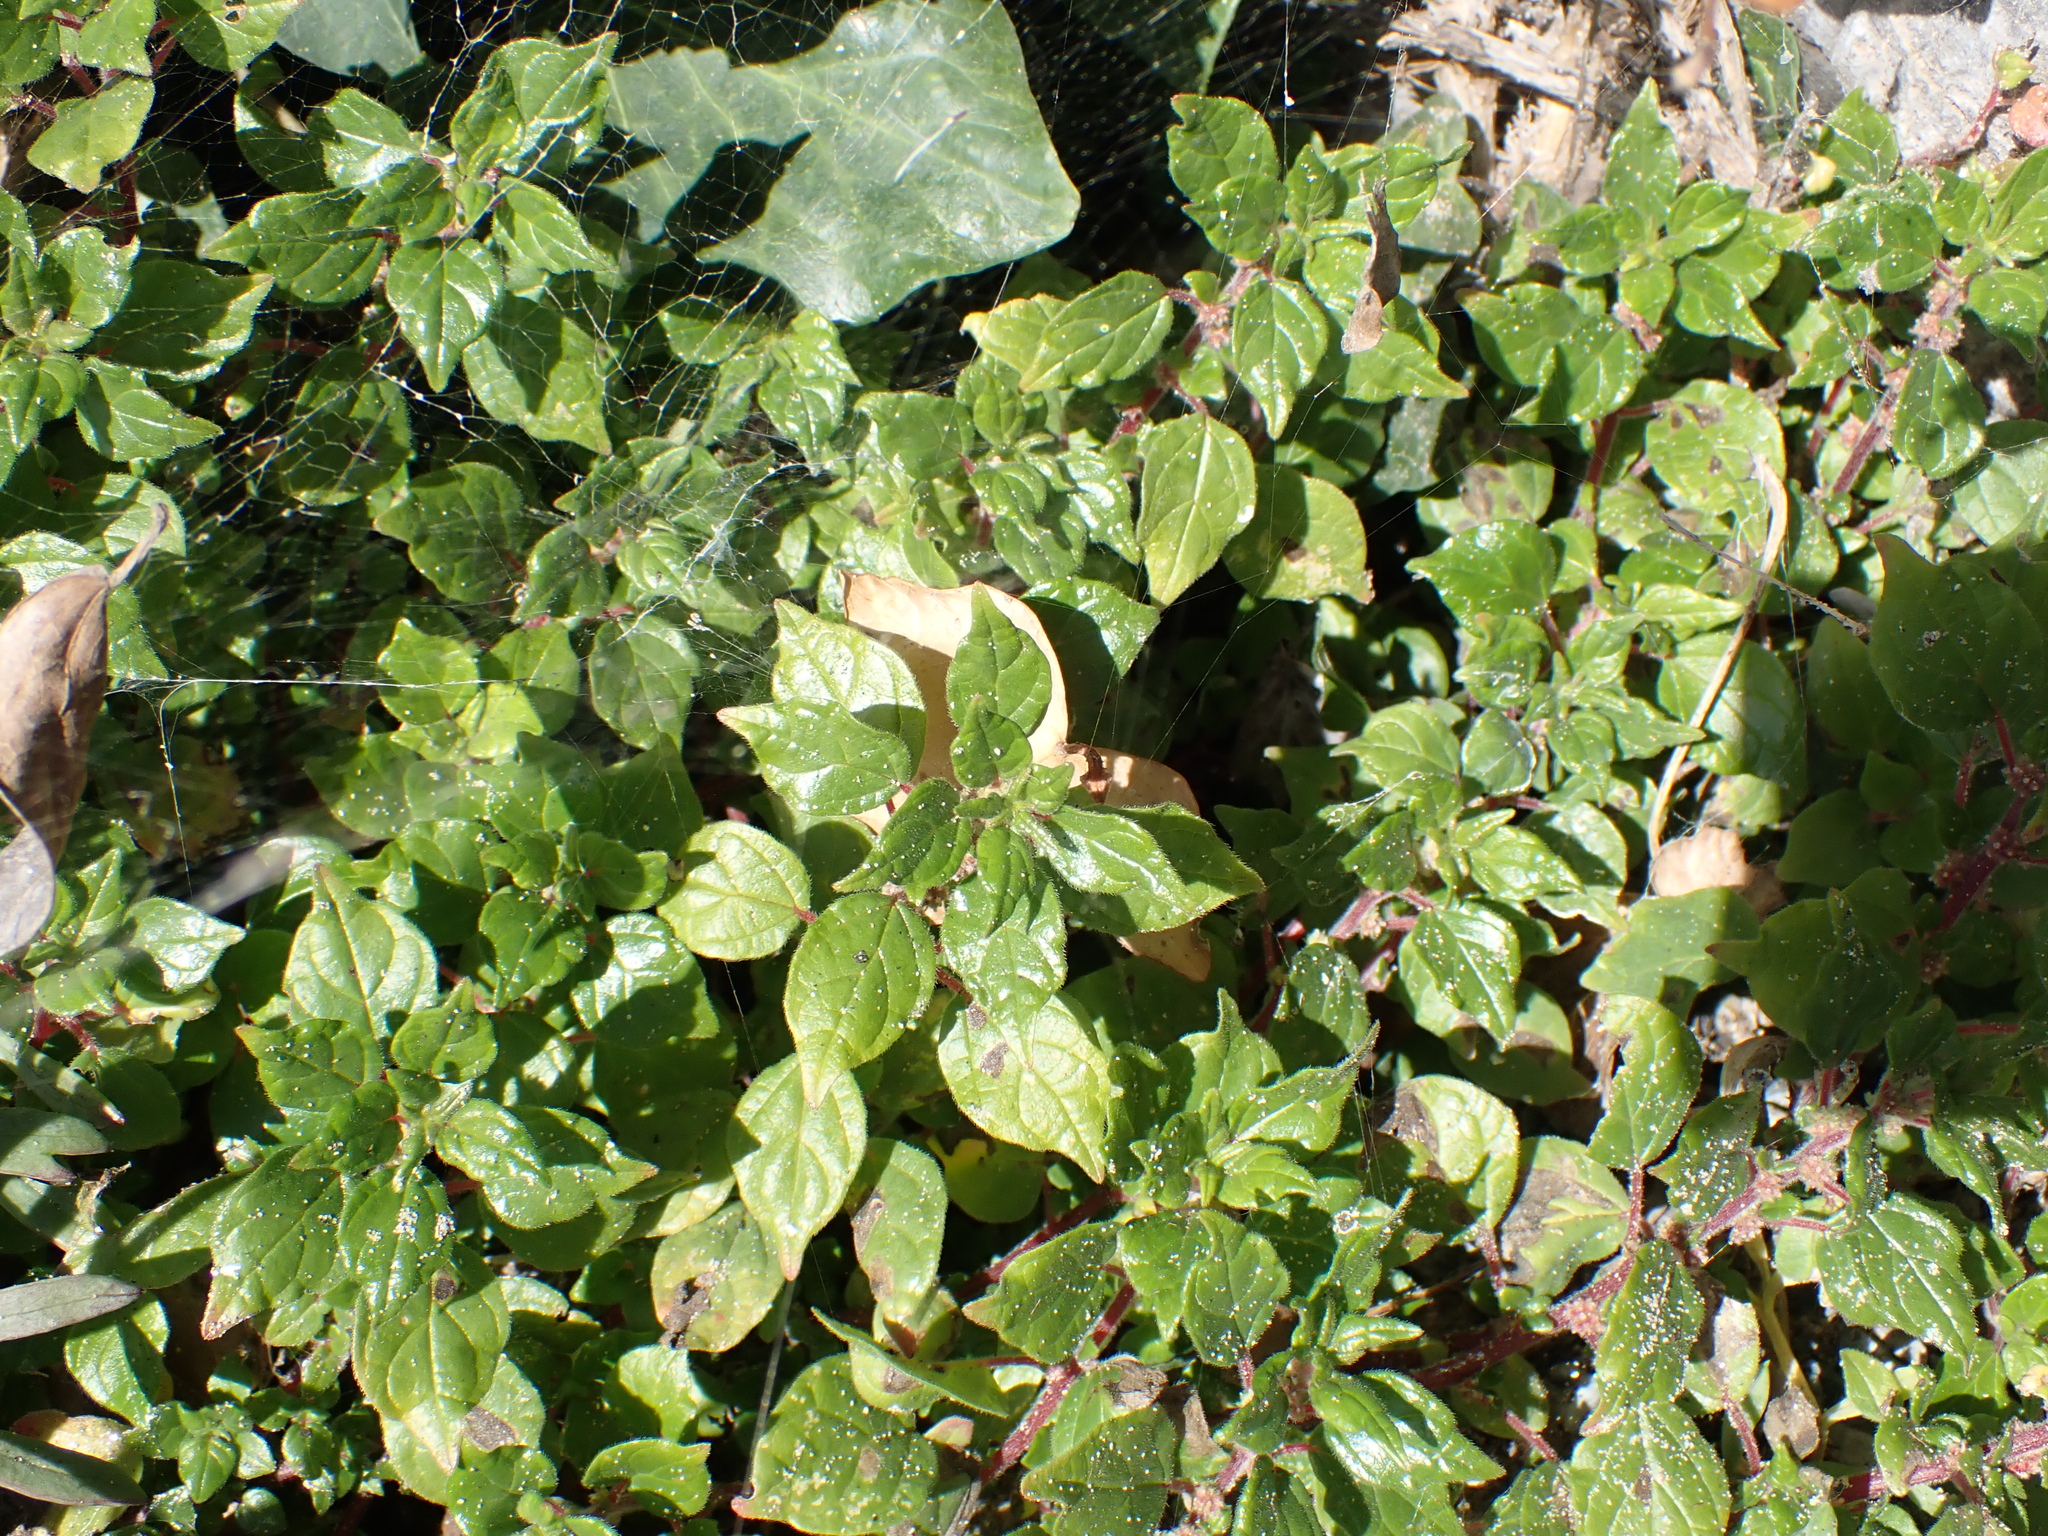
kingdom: Plantae
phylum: Tracheophyta
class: Magnoliopsida
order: Rosales
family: Urticaceae
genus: Parietaria
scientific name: Parietaria judaica
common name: Pellitory-of-the-wall
